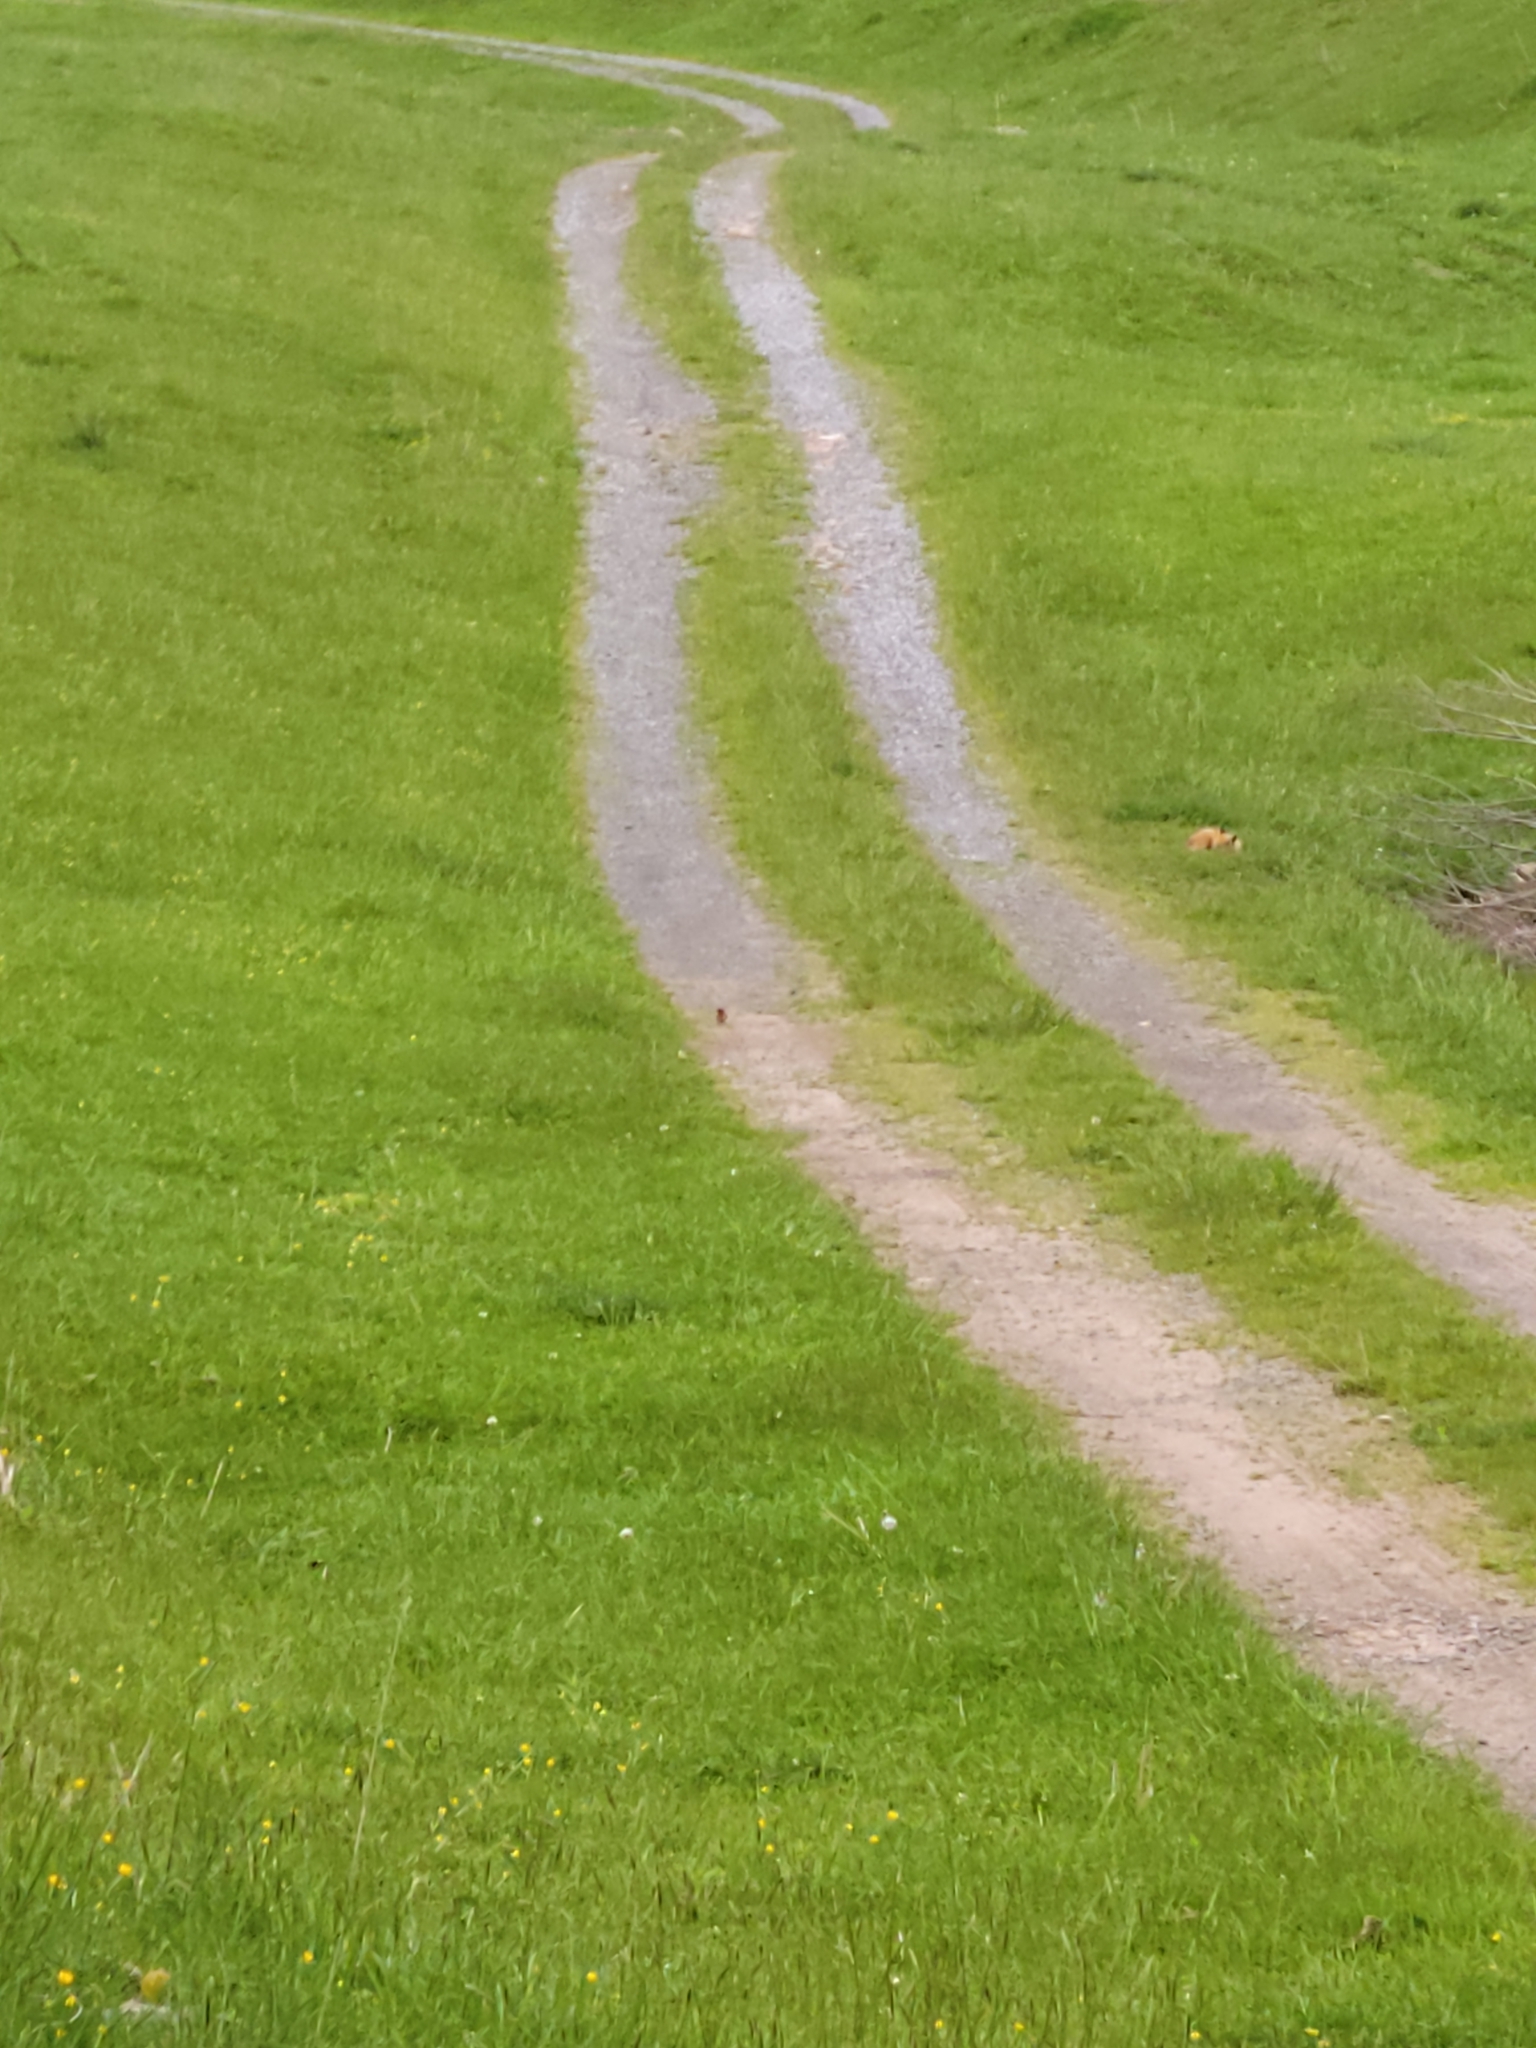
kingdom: Animalia
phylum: Chordata
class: Mammalia
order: Carnivora
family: Canidae
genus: Vulpes
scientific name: Vulpes vulpes
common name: Red fox
